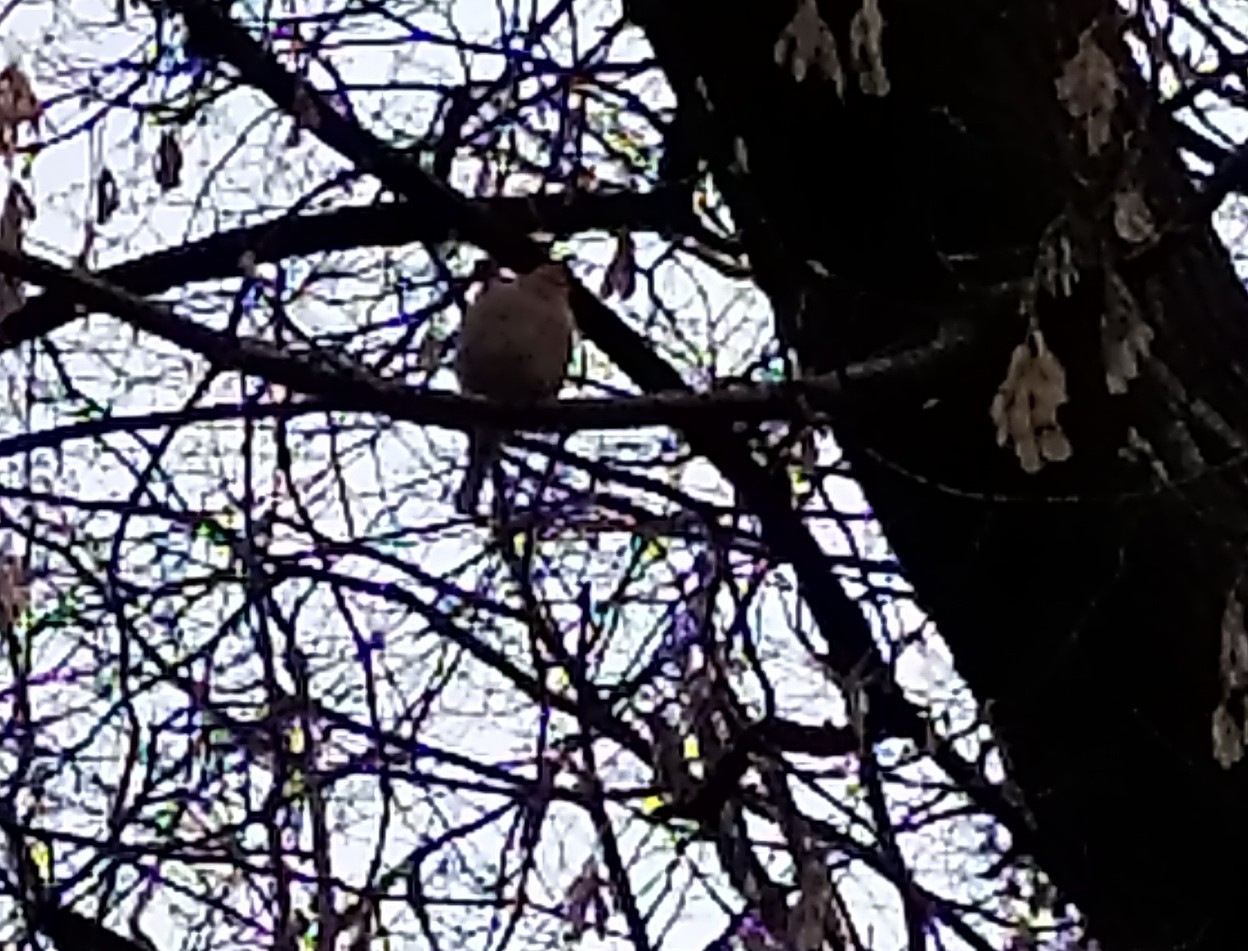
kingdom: Animalia
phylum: Chordata
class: Aves
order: Passeriformes
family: Fringillidae
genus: Fringilla
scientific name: Fringilla coelebs
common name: Common chaffinch
